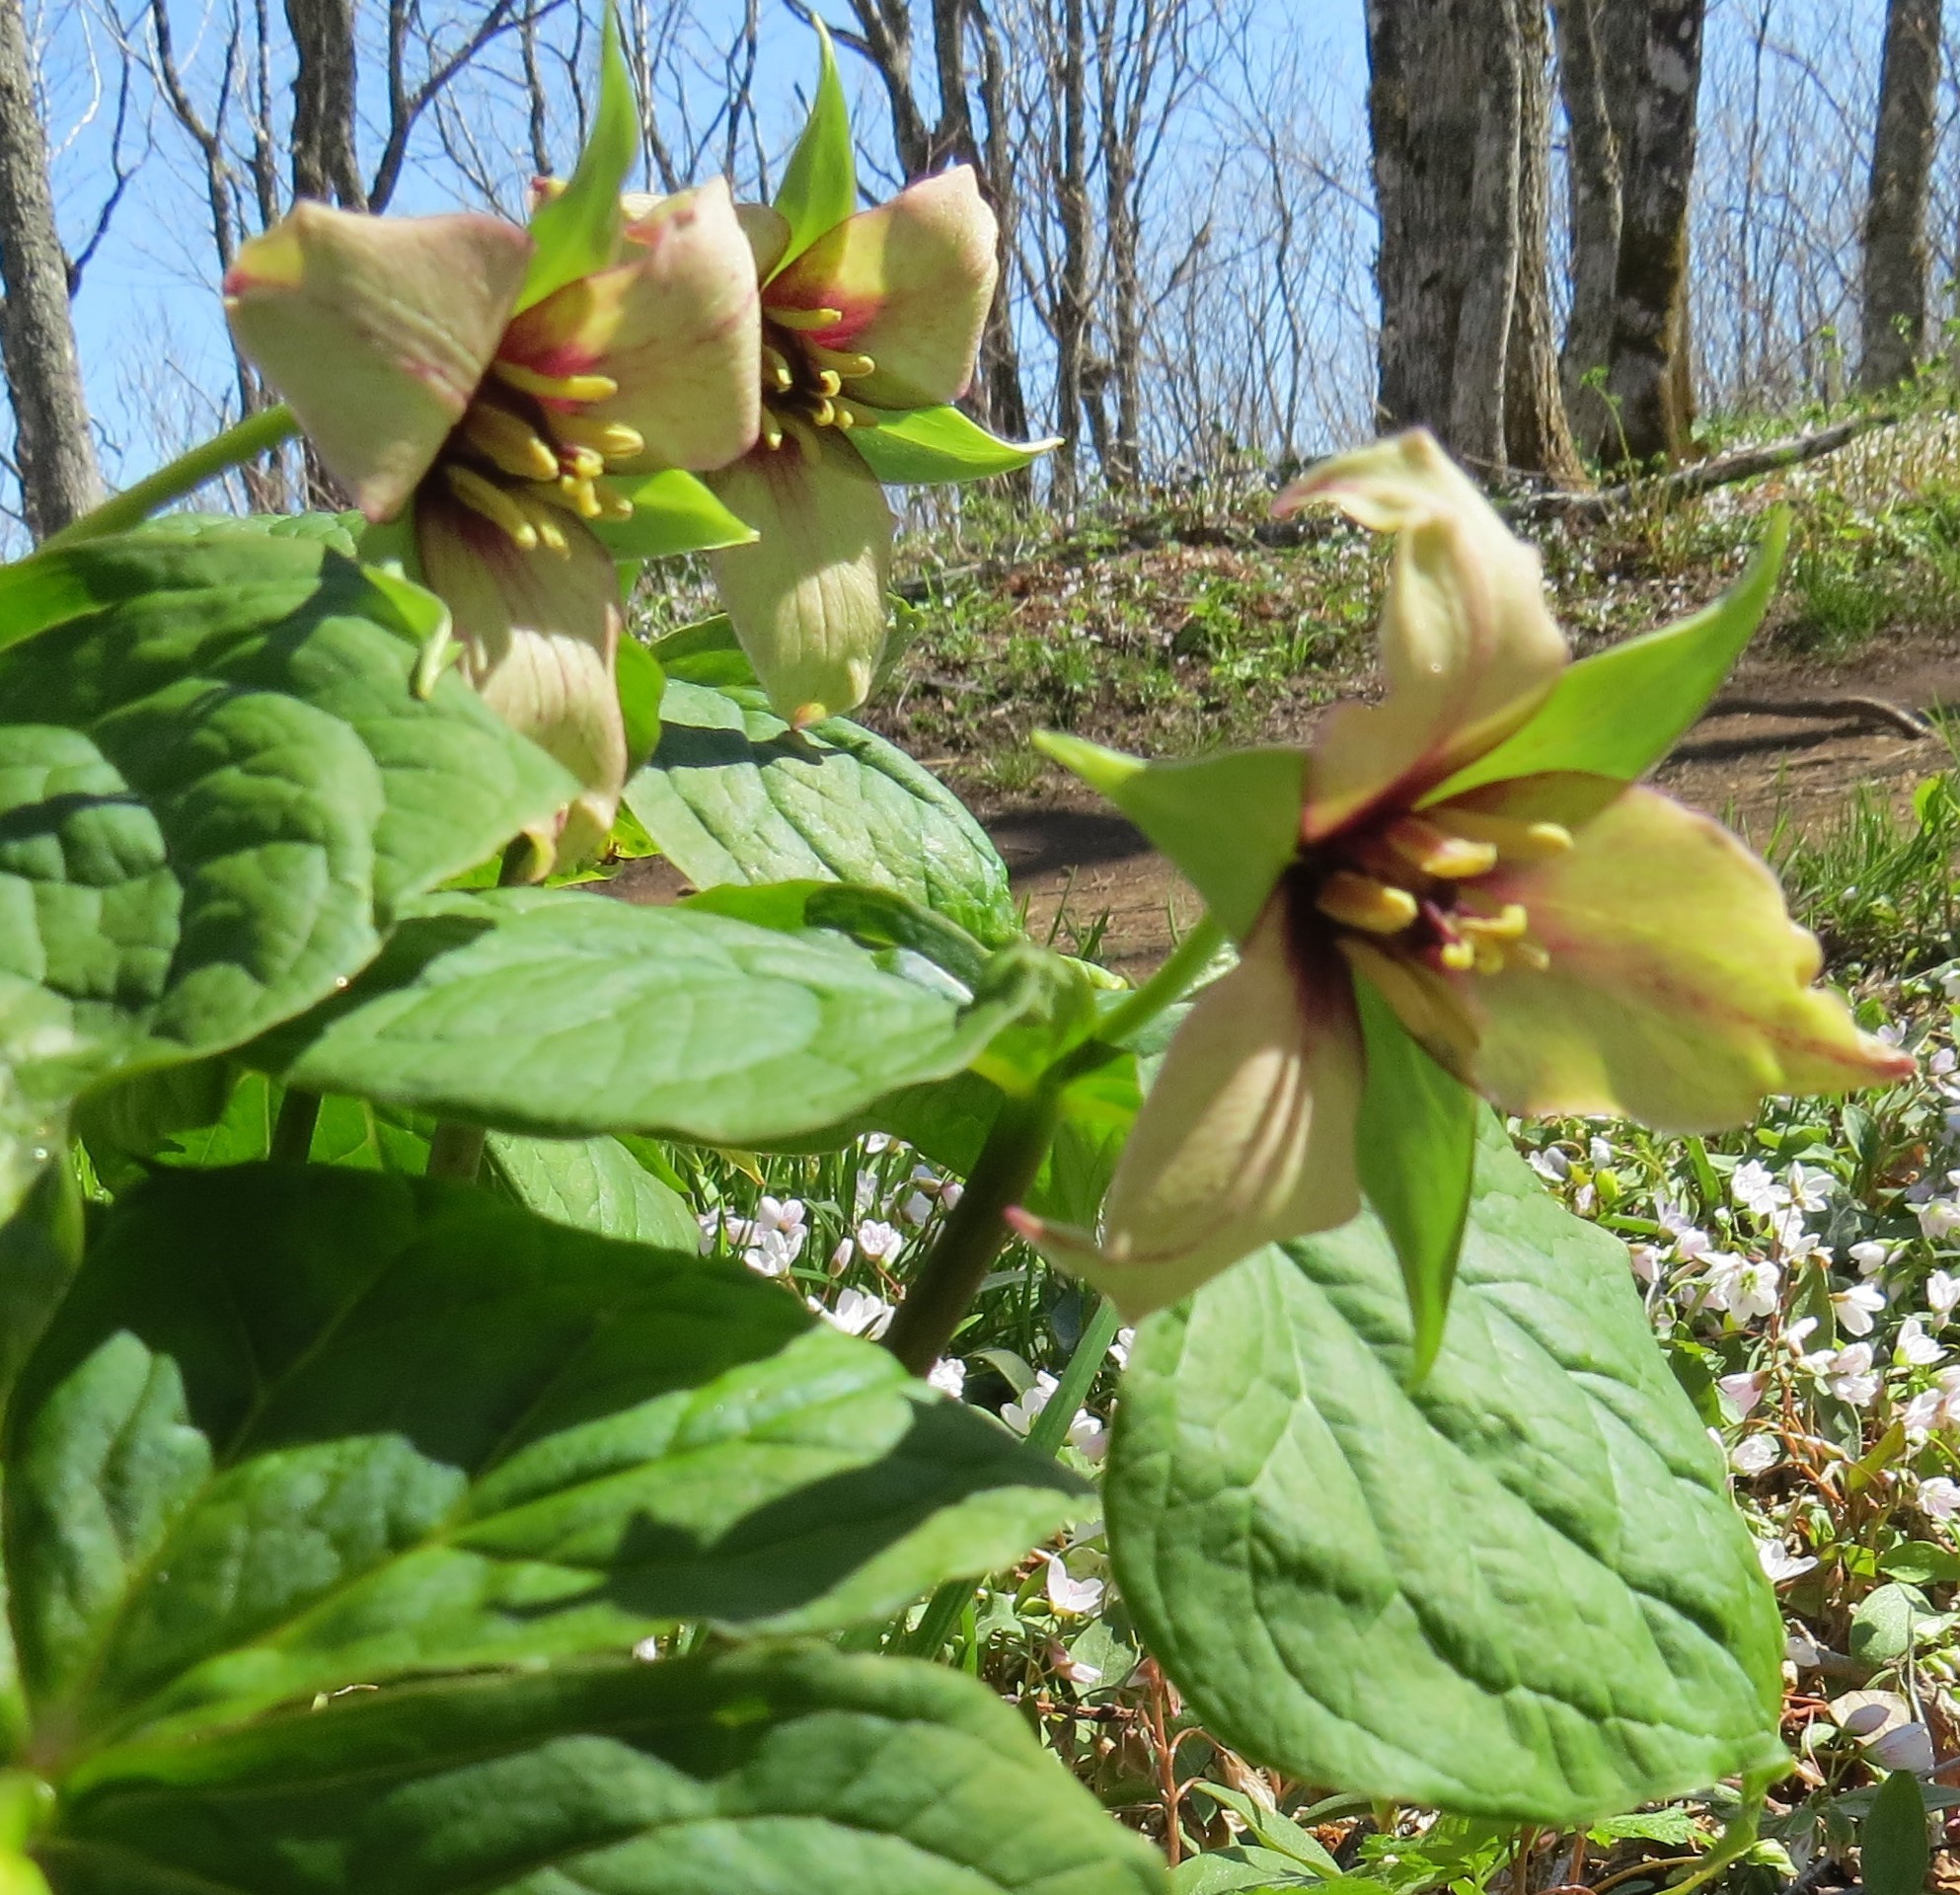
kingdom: Plantae
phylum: Tracheophyta
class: Liliopsida
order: Liliales
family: Melanthiaceae
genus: Trillium
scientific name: Trillium erectum
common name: Purple trillium
